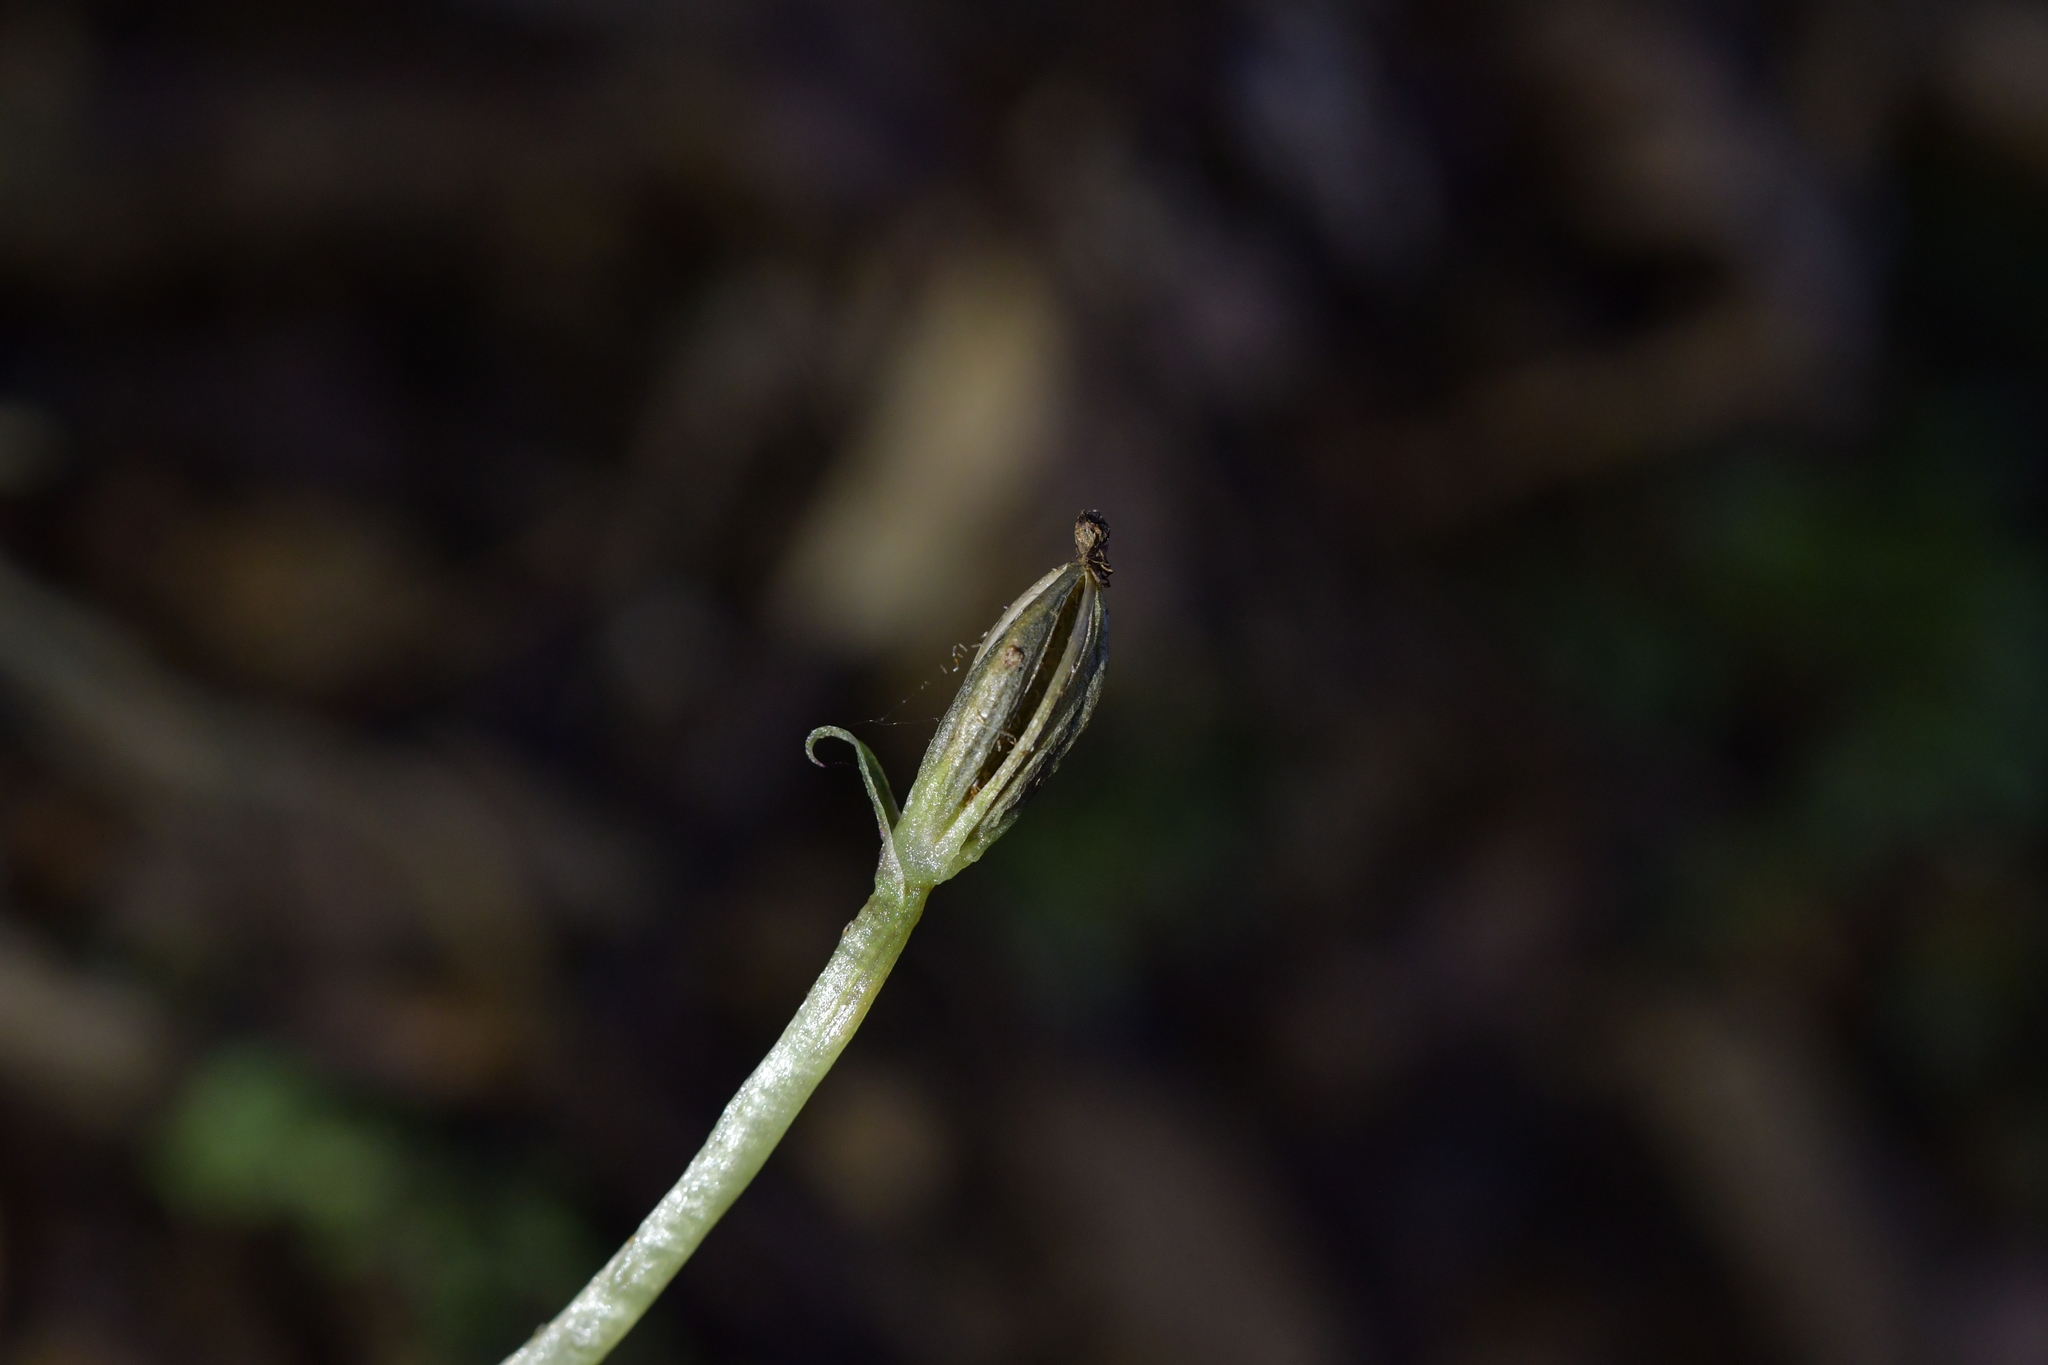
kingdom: Plantae
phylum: Tracheophyta
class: Liliopsida
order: Asparagales
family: Orchidaceae
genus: Corybas
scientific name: Corybas cheesemanii
